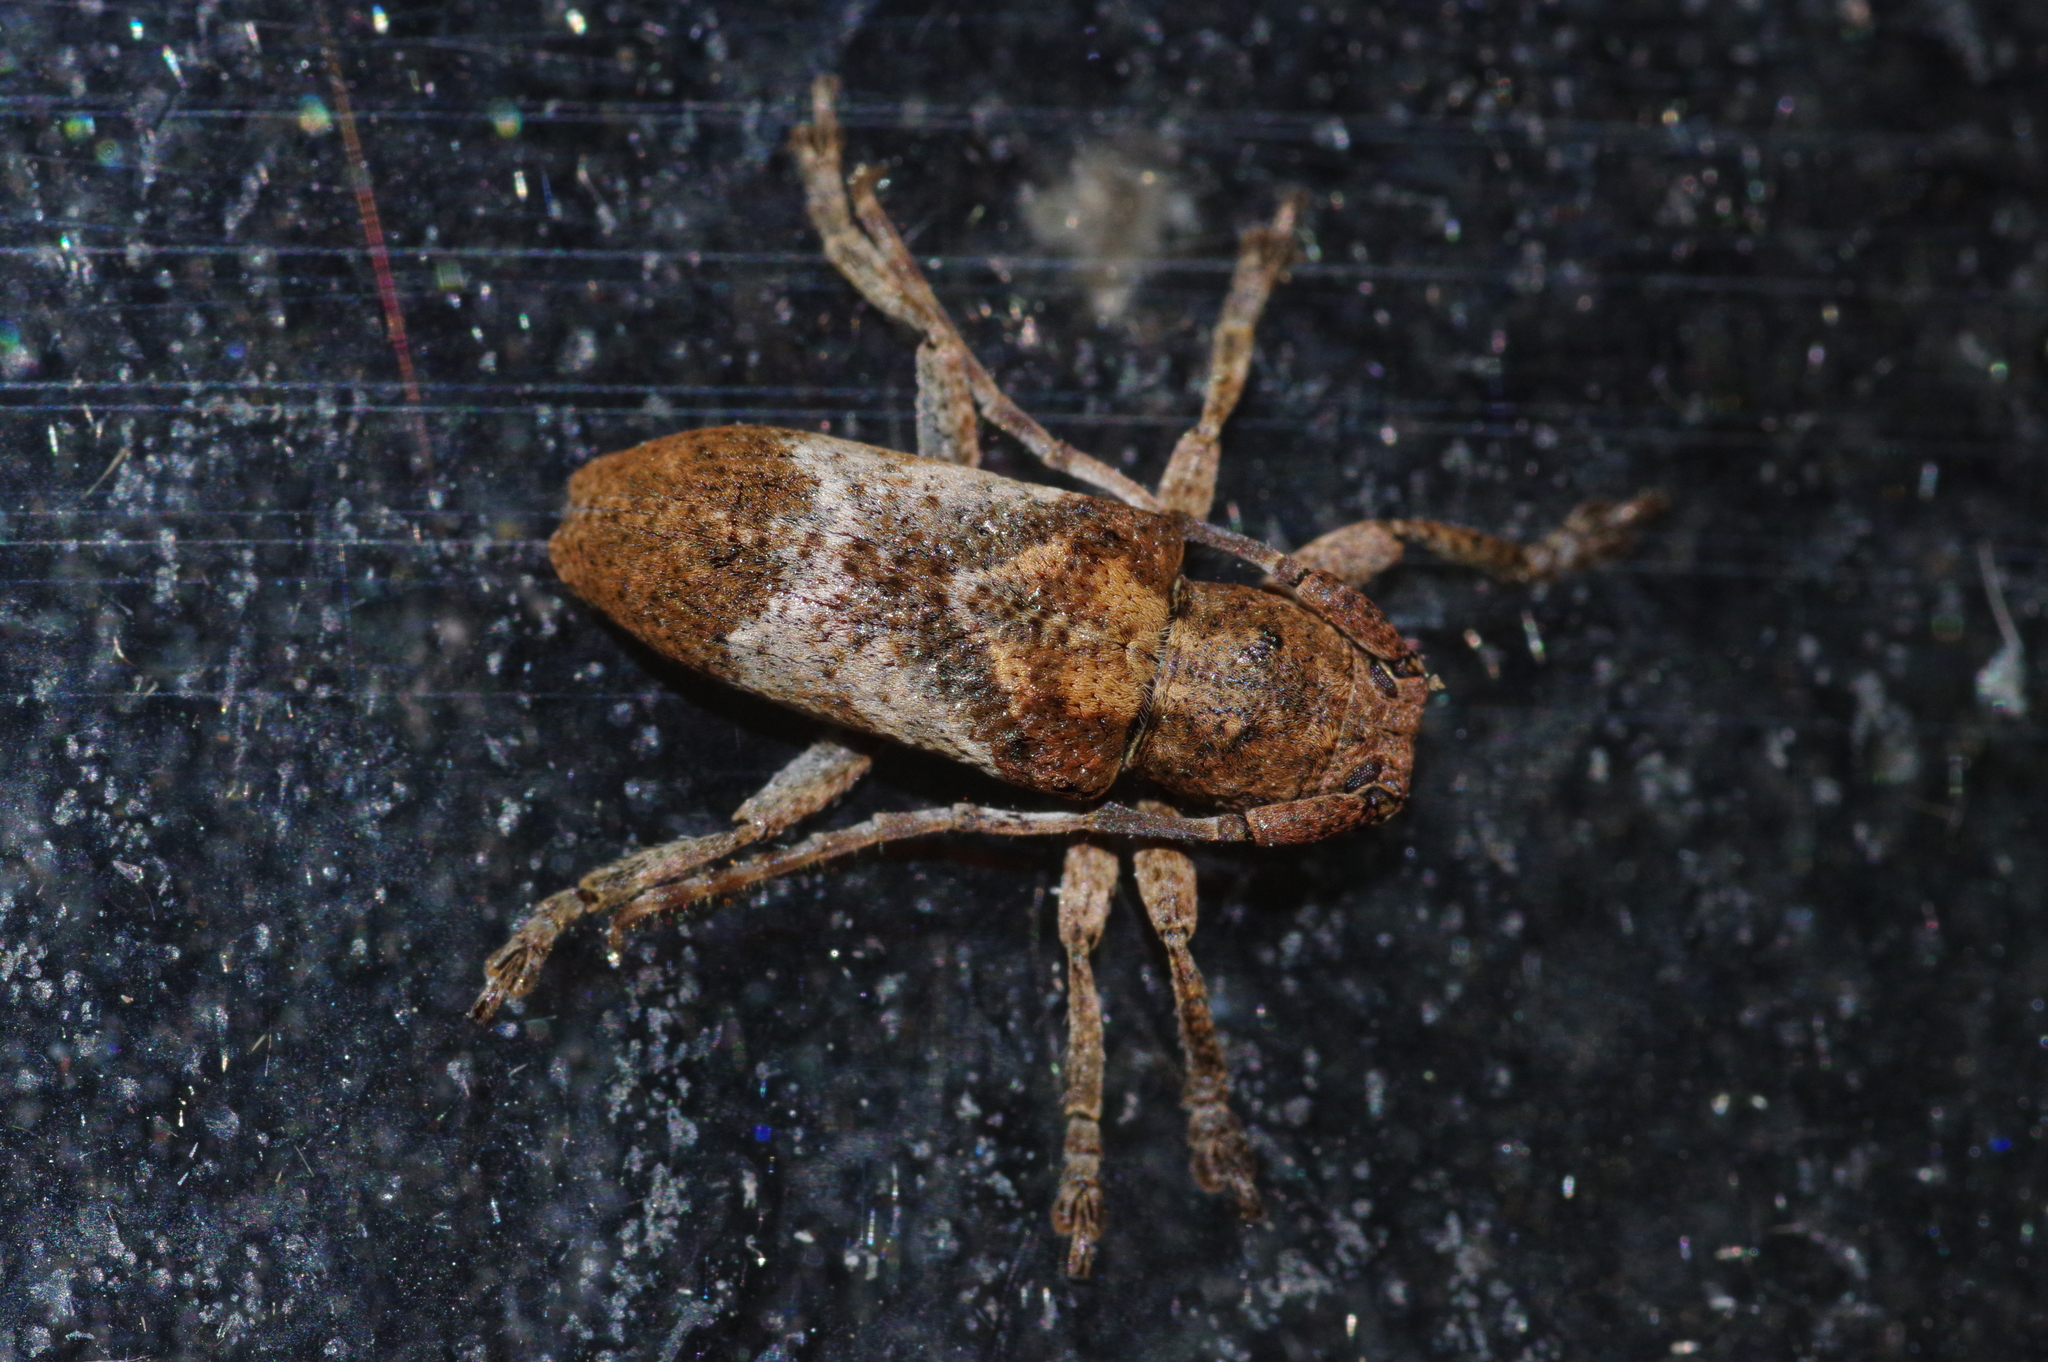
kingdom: Animalia
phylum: Arthropoda
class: Insecta
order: Coleoptera
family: Cerambycidae
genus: Pterolophia
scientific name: Pterolophia annulata
